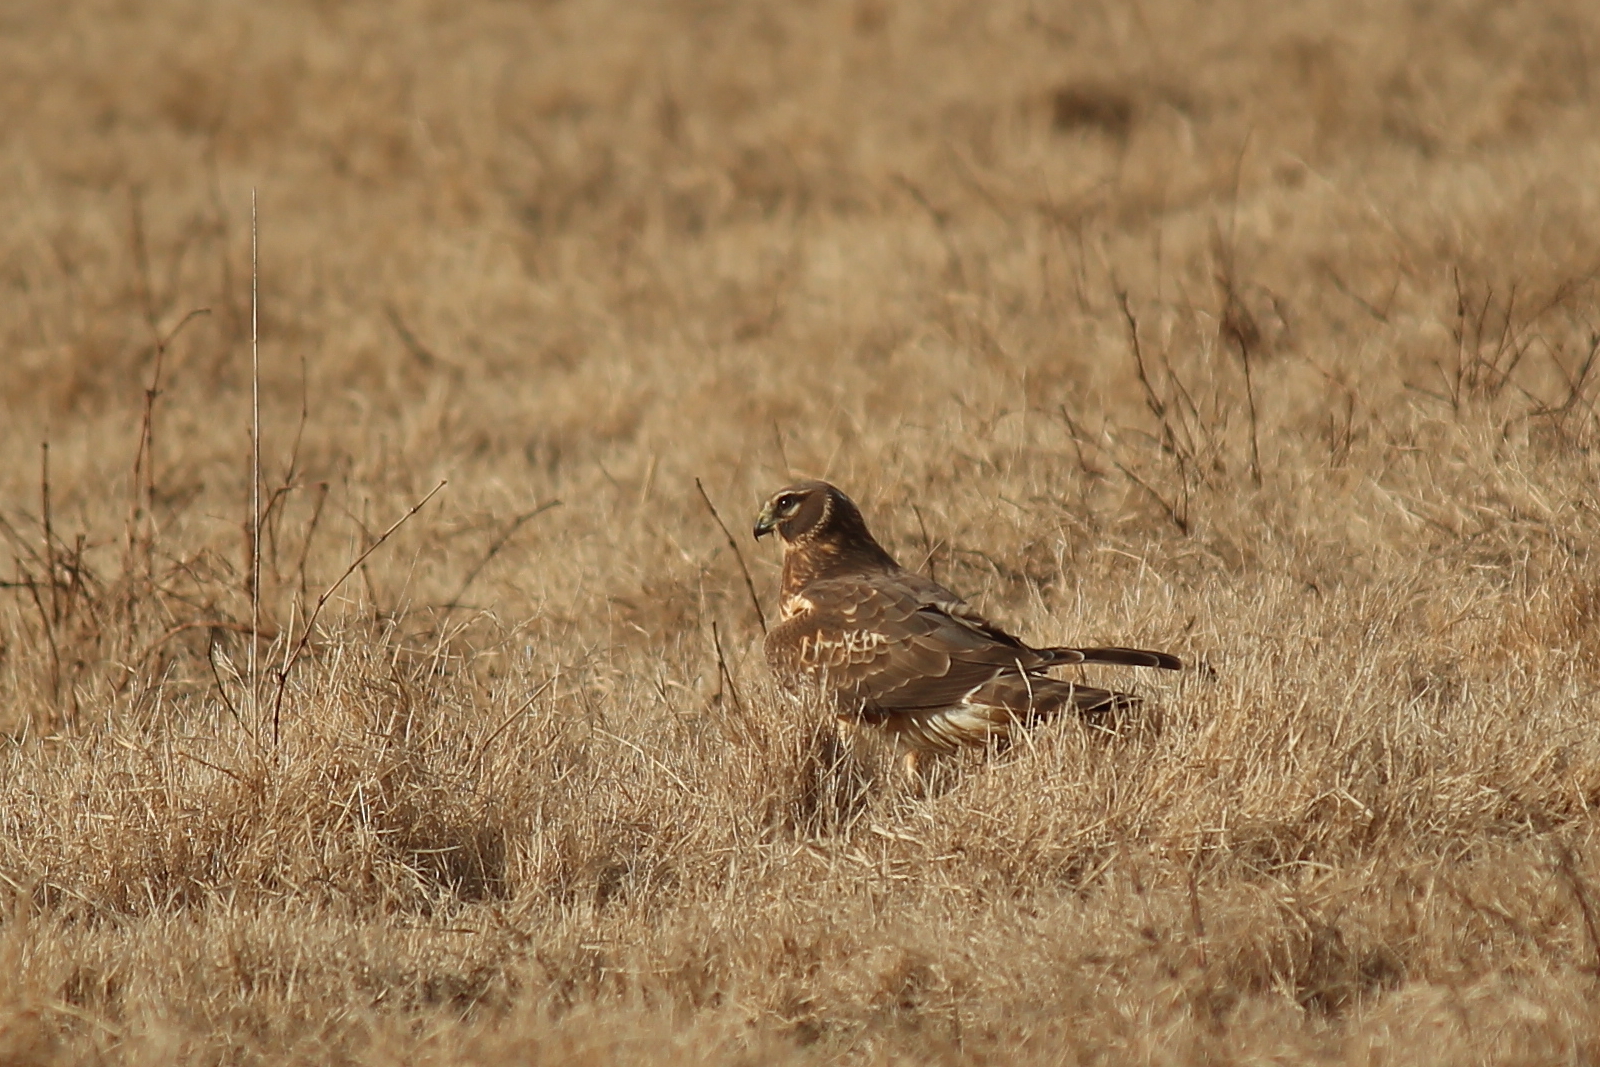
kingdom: Animalia
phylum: Chordata
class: Aves
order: Accipitriformes
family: Accipitridae
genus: Circus
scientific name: Circus cyaneus
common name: Hen harrier
